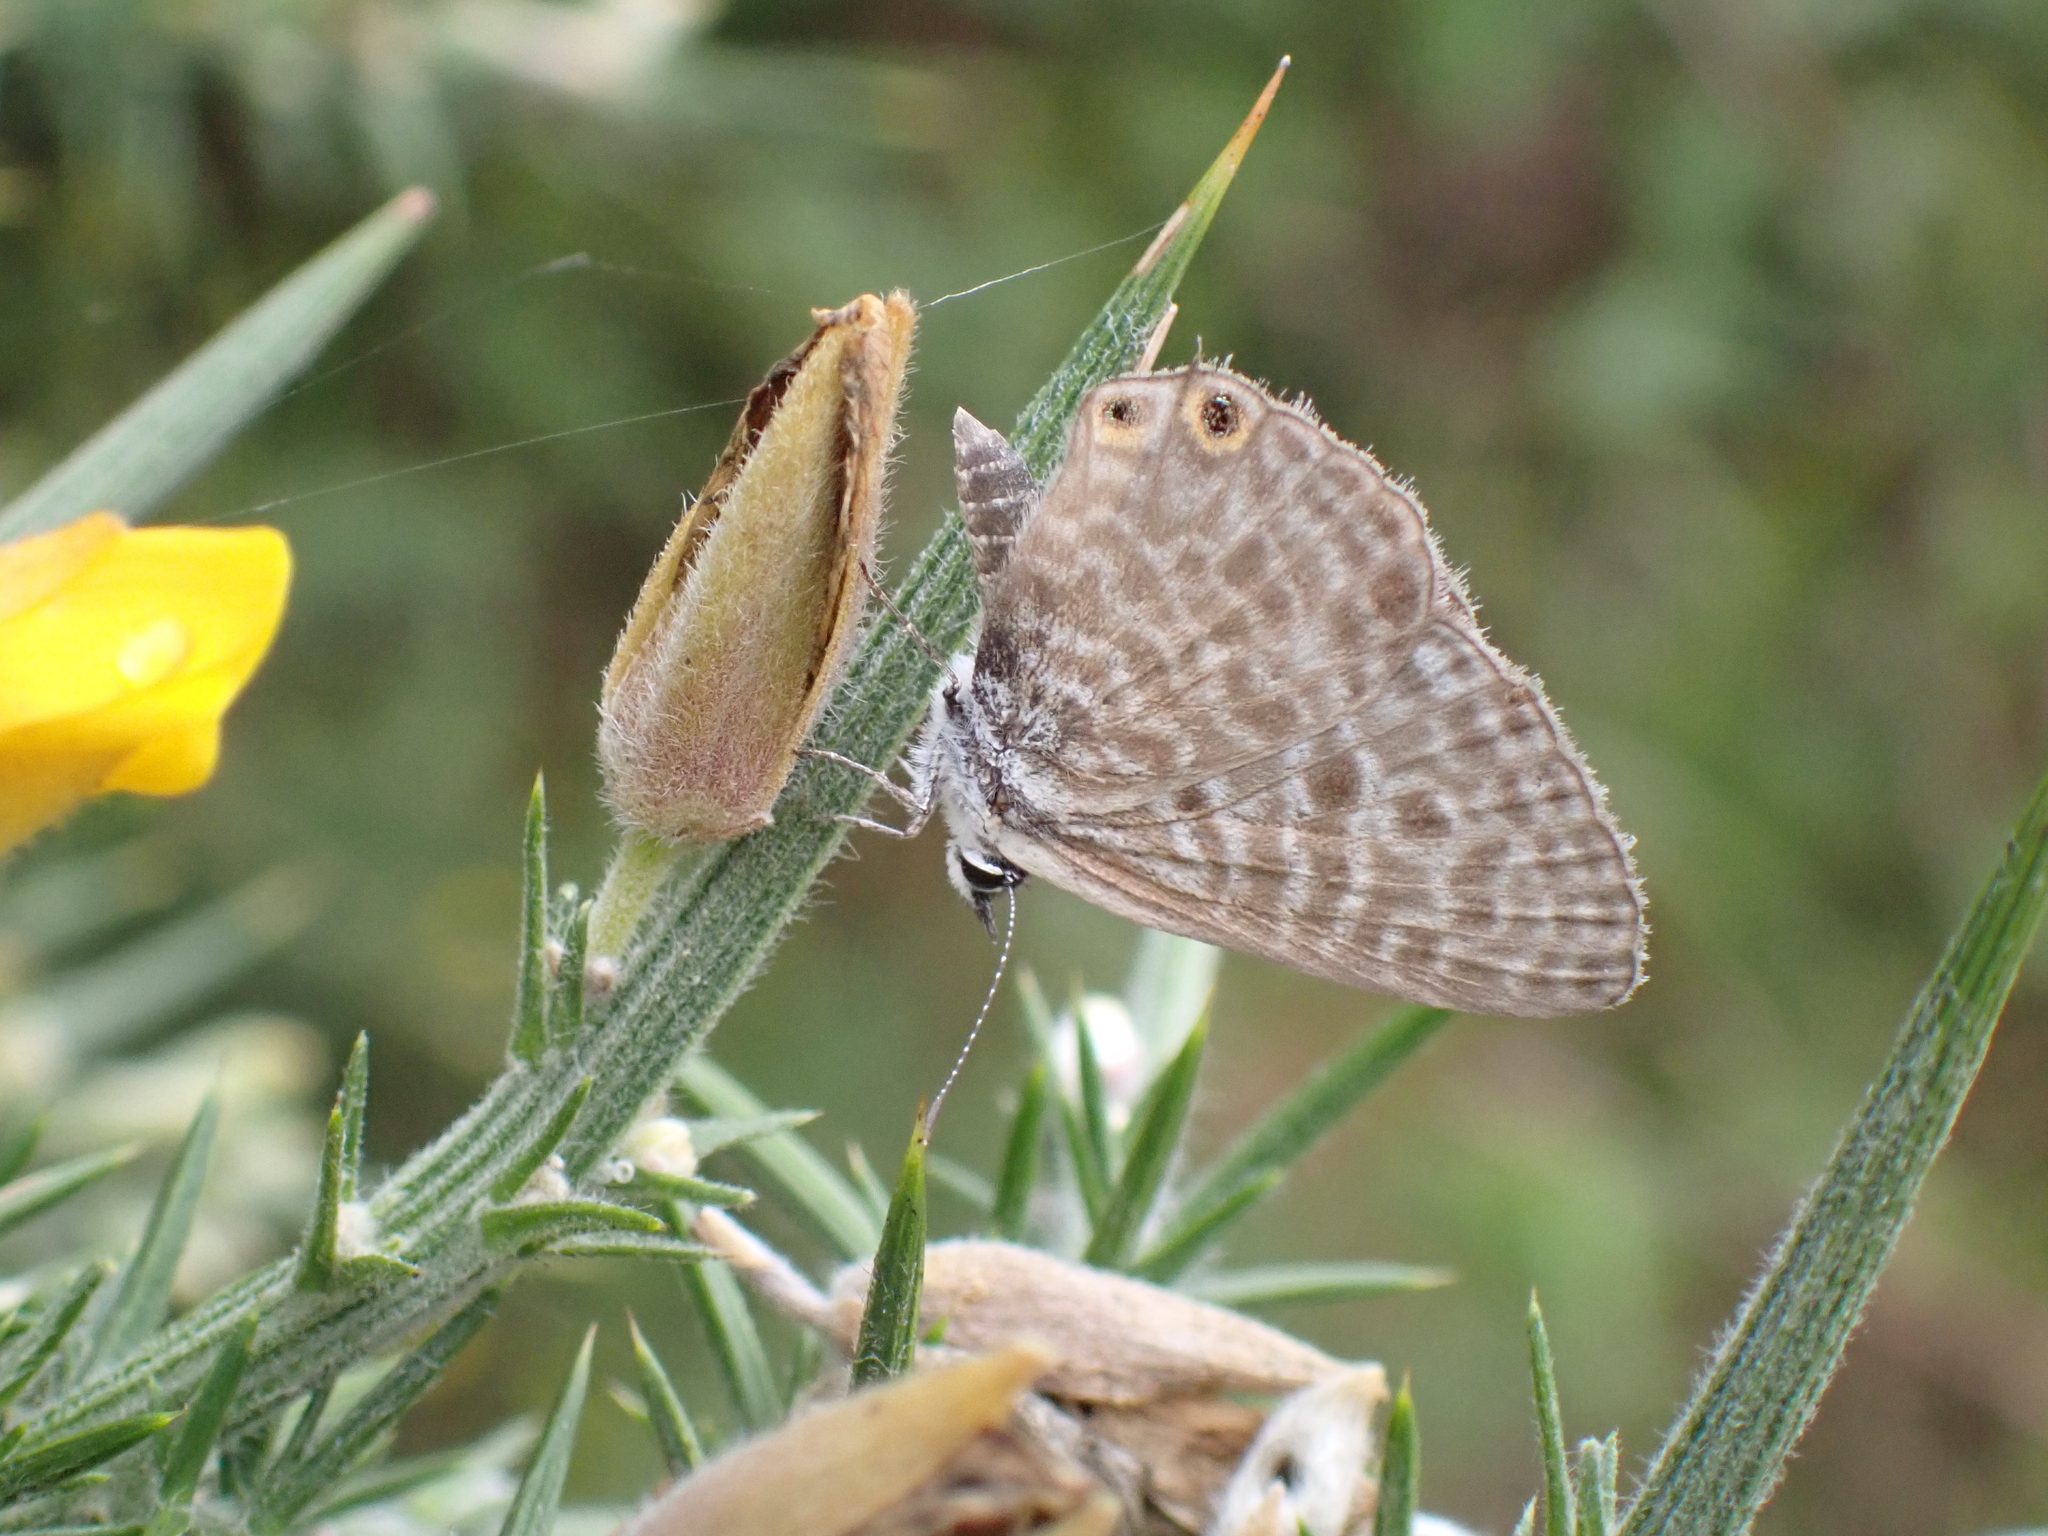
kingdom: Animalia
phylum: Arthropoda
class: Insecta
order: Lepidoptera
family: Lycaenidae
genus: Leptotes
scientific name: Leptotes pirithous
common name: Lang's short-tailed blue
